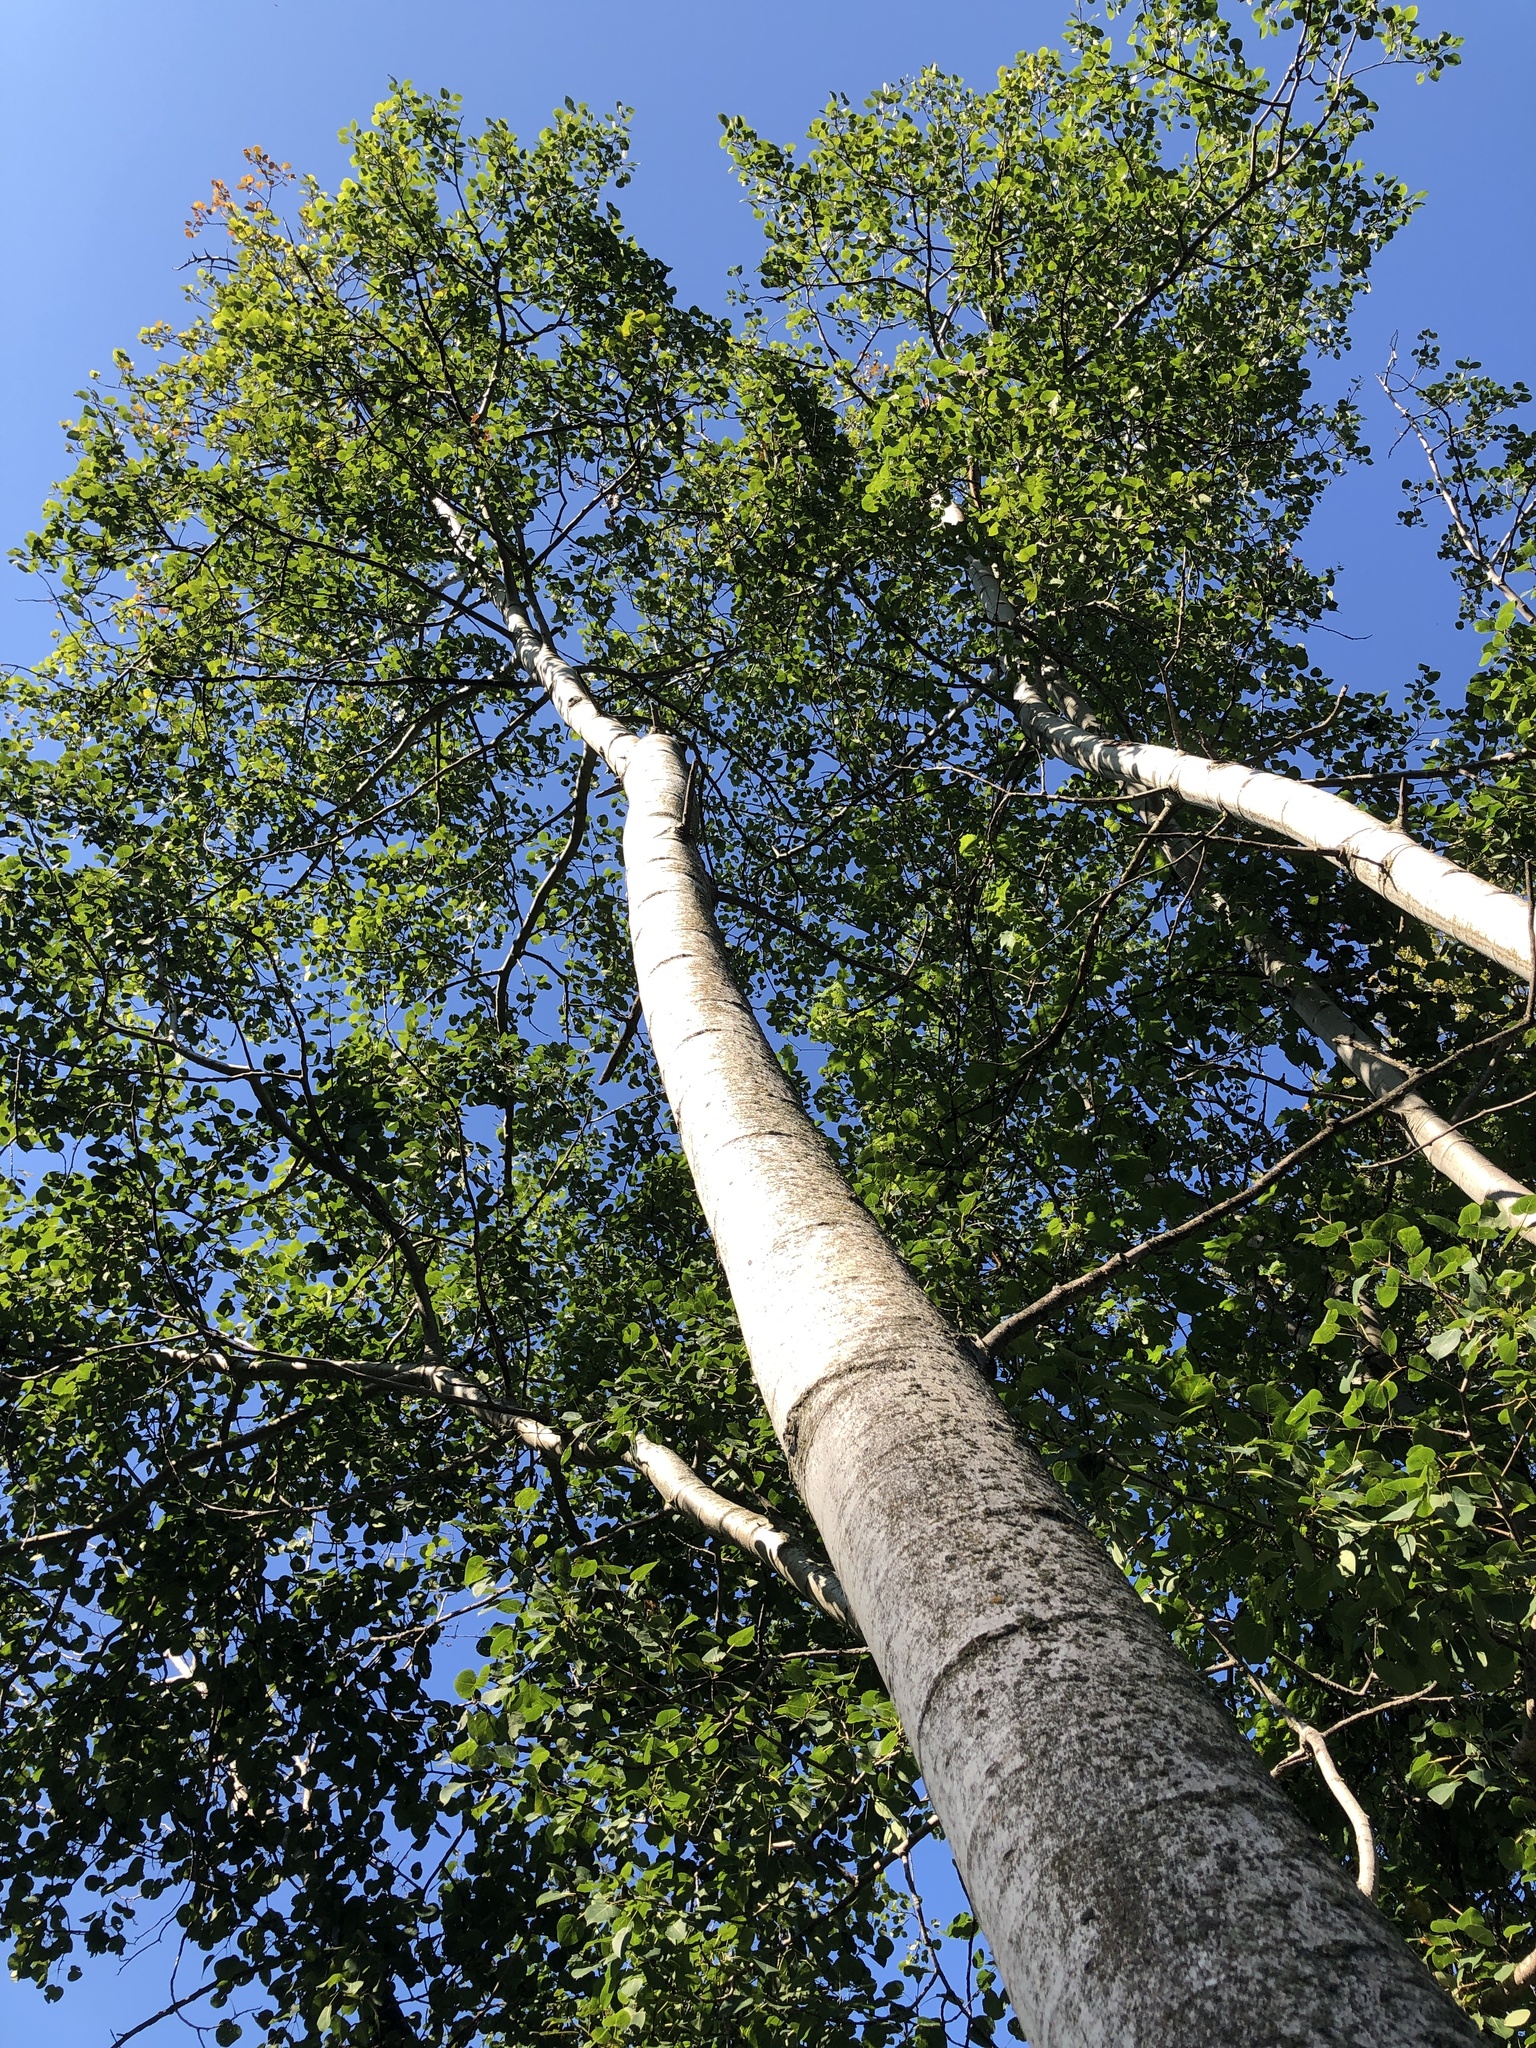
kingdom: Plantae
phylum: Tracheophyta
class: Magnoliopsida
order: Malpighiales
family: Salicaceae
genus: Populus
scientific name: Populus tremuloides
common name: Quaking aspen
